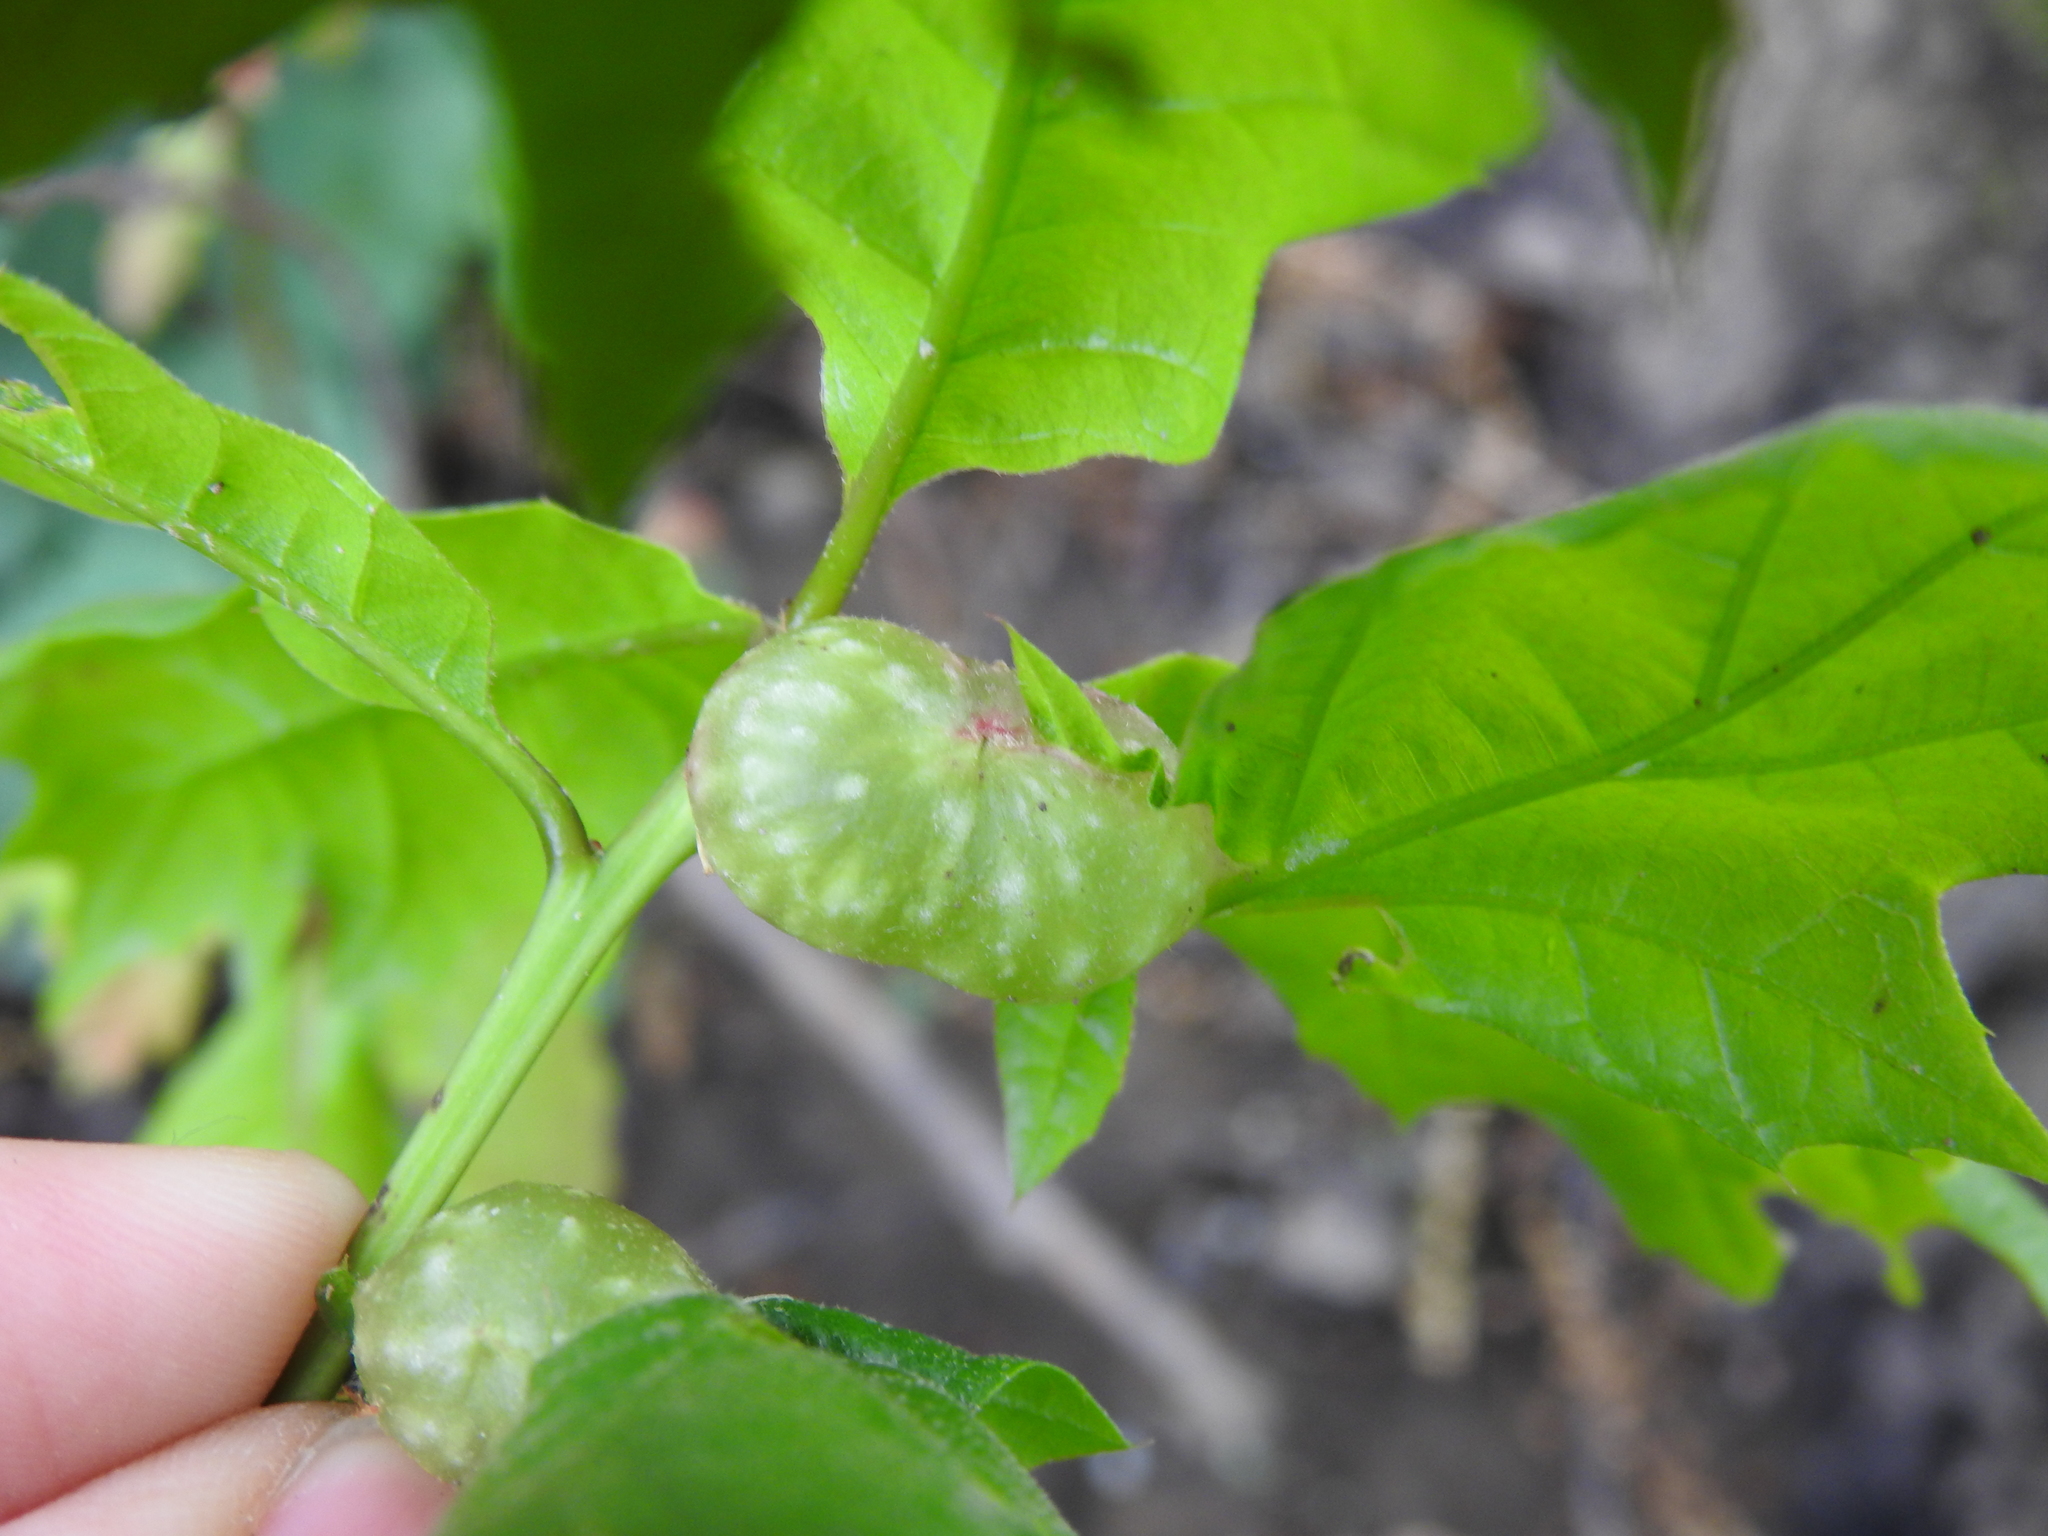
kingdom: Animalia
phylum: Arthropoda
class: Insecta
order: Hymenoptera
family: Cynipidae
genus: Dryocosmus
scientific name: Dryocosmus quercuspalustris
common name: Succulent oak gall wasp
